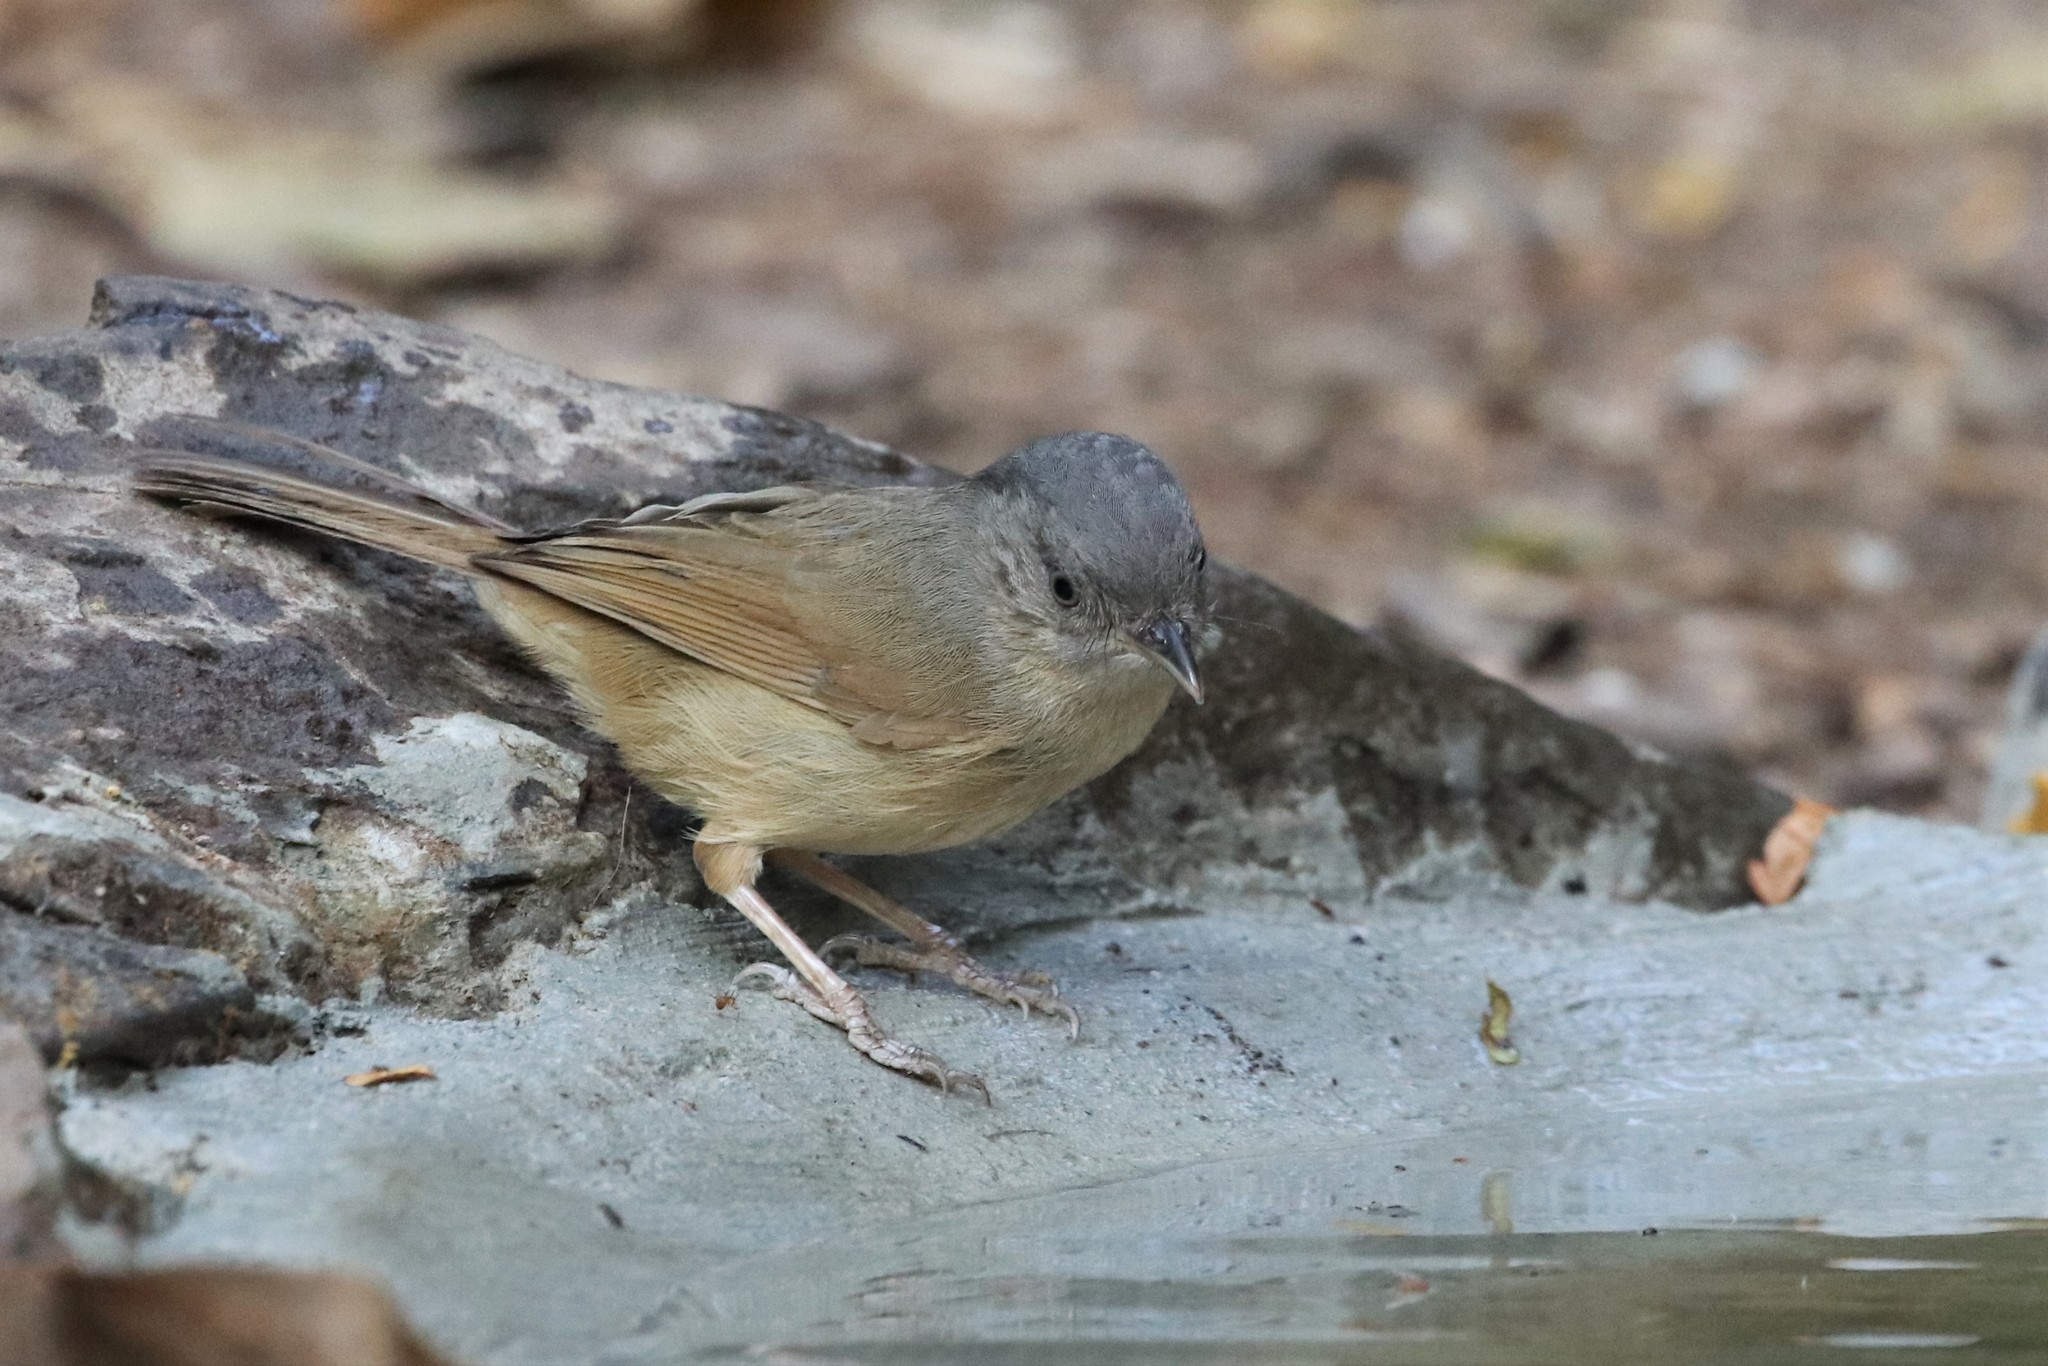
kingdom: Animalia
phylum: Chordata
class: Aves
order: Passeriformes
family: Pellorneidae
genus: Alcippe
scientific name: Alcippe poioicephala
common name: Brown-cheeked fulvetta
